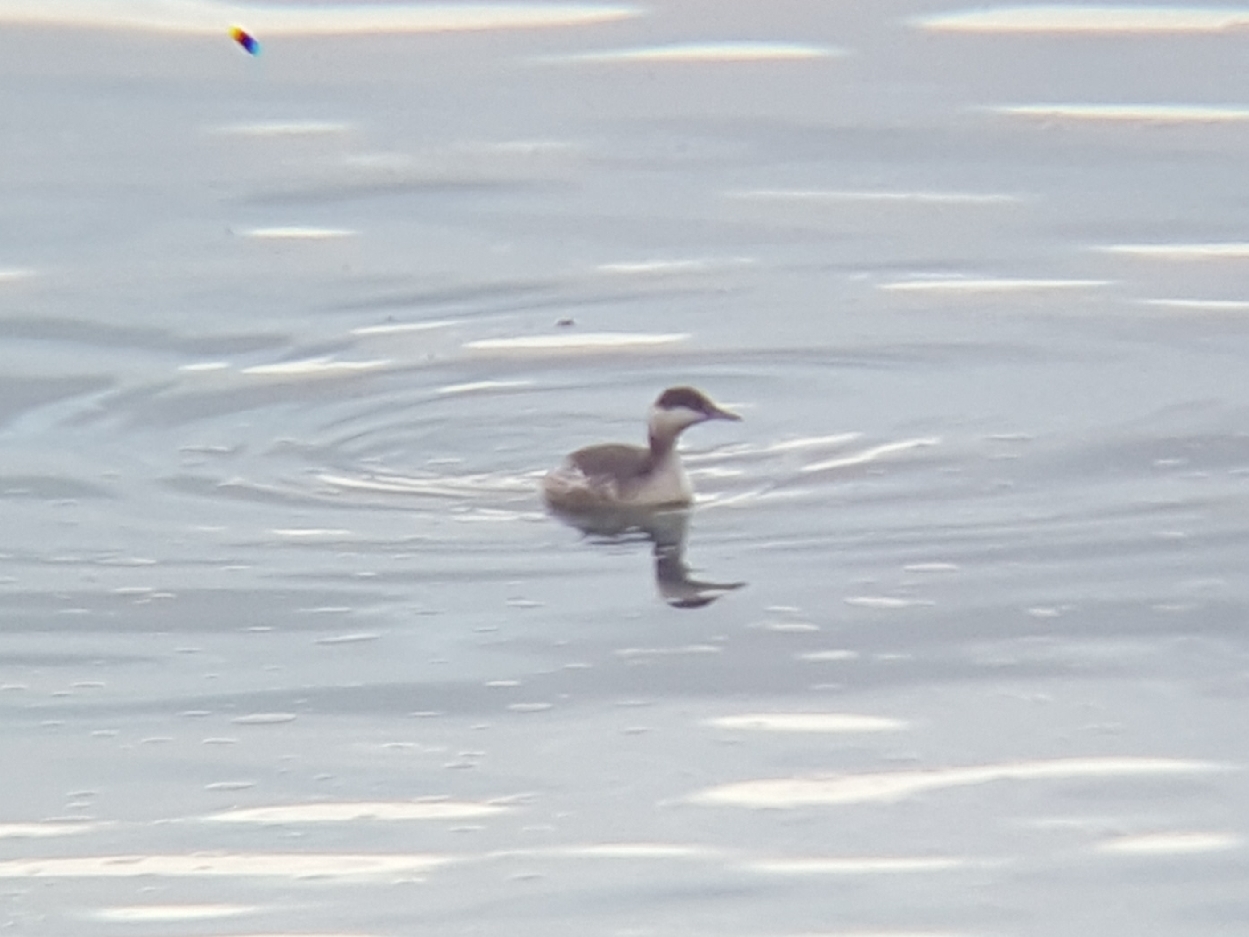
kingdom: Animalia
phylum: Chordata
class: Aves
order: Podicipediformes
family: Podicipedidae
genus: Podiceps
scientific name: Podiceps auritus
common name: Horned grebe
